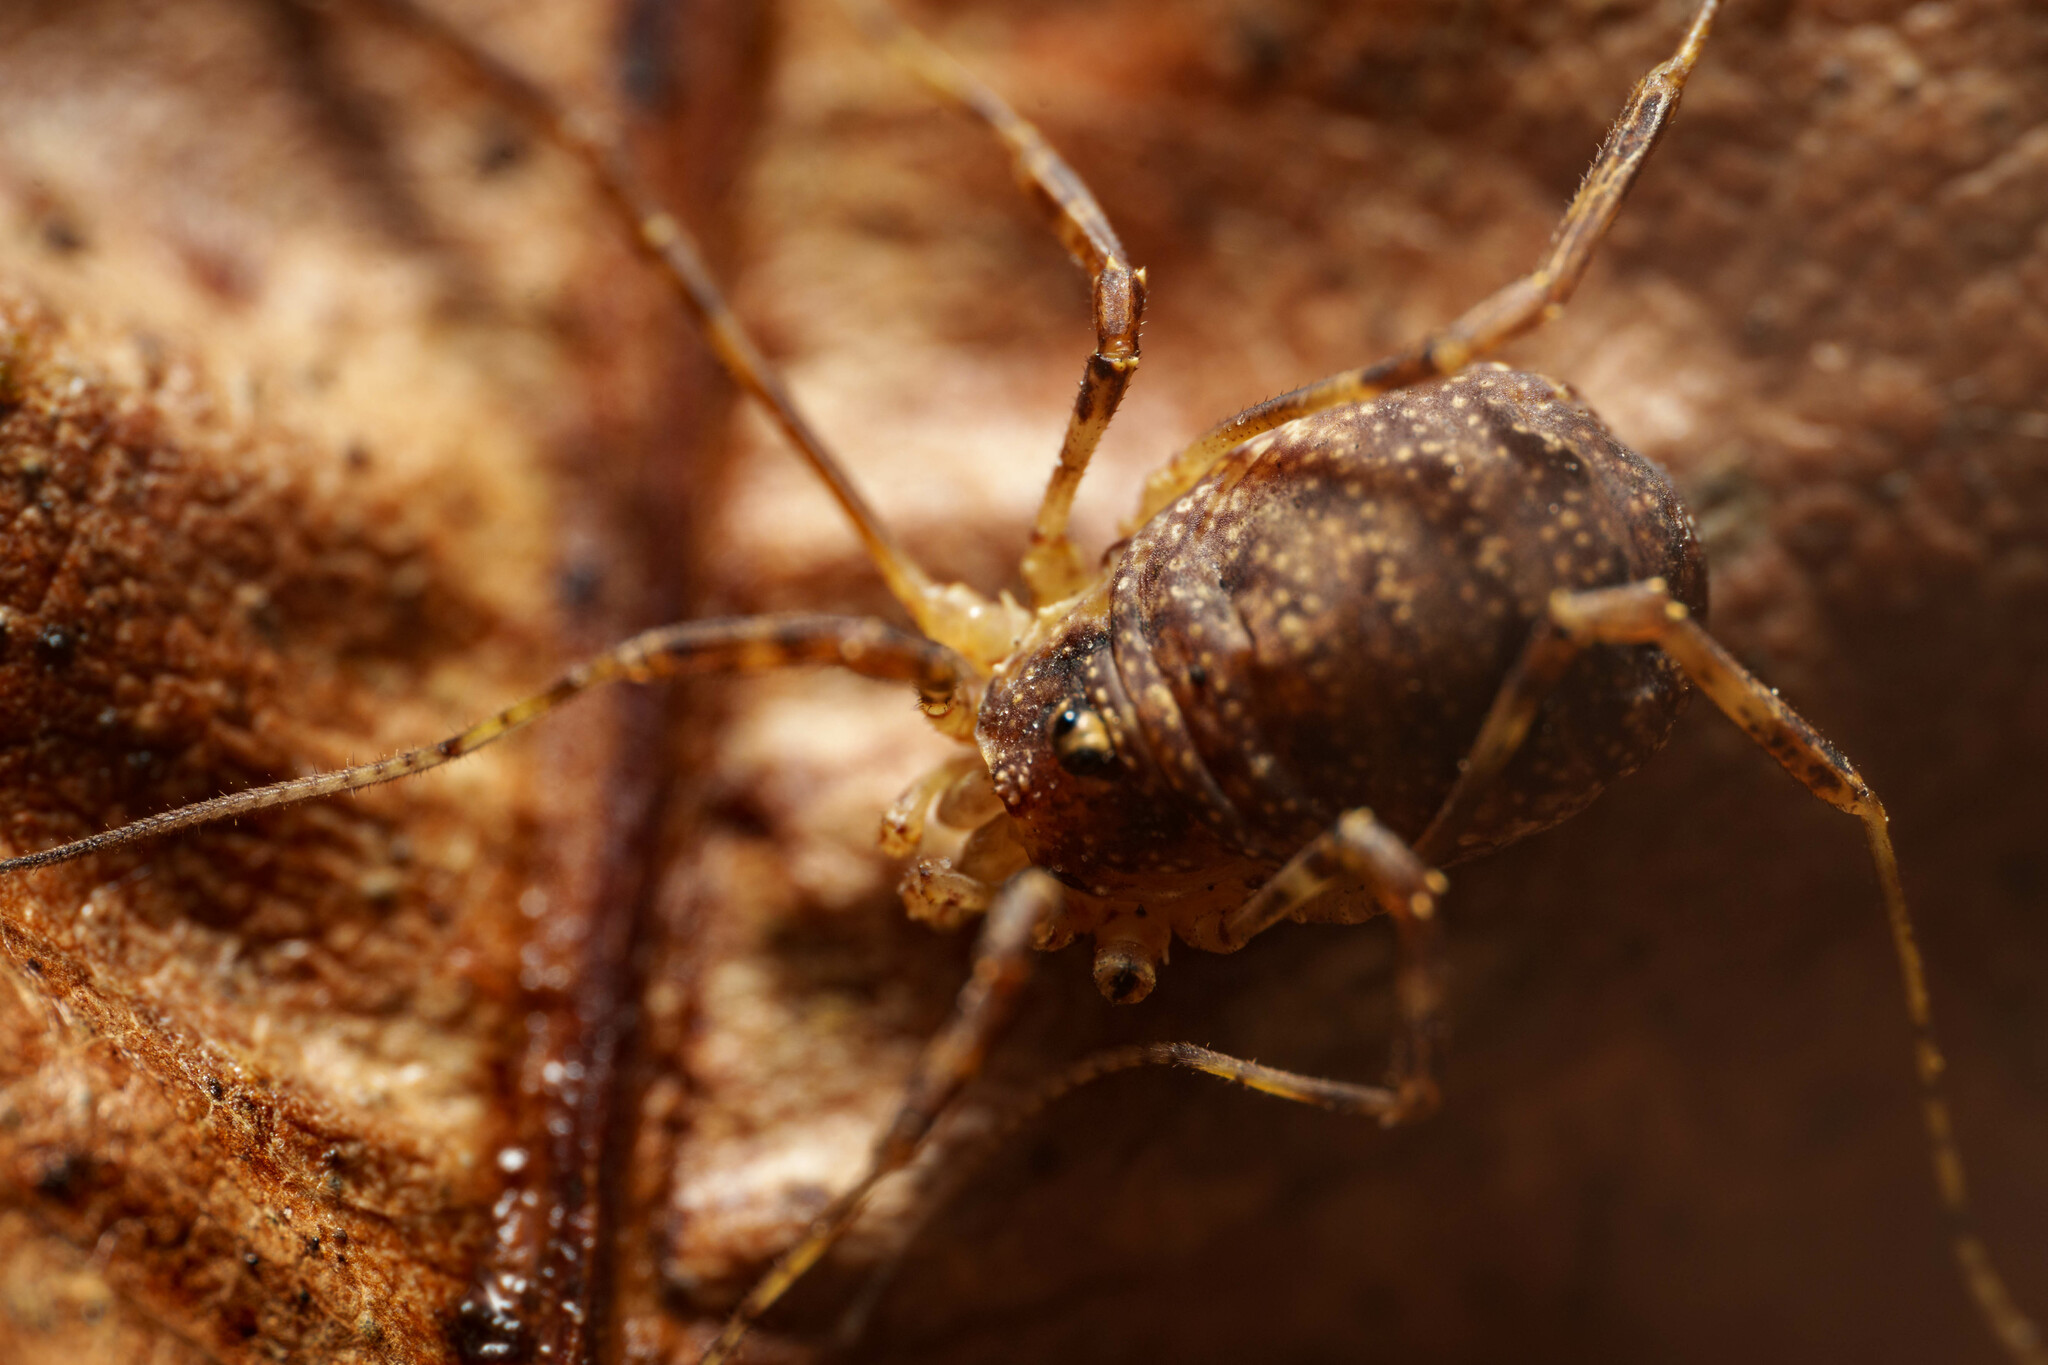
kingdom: Animalia
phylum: Arthropoda
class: Arachnida
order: Opiliones
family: Phalangiidae
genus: Paroligolophus
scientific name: Paroligolophus agrestis
